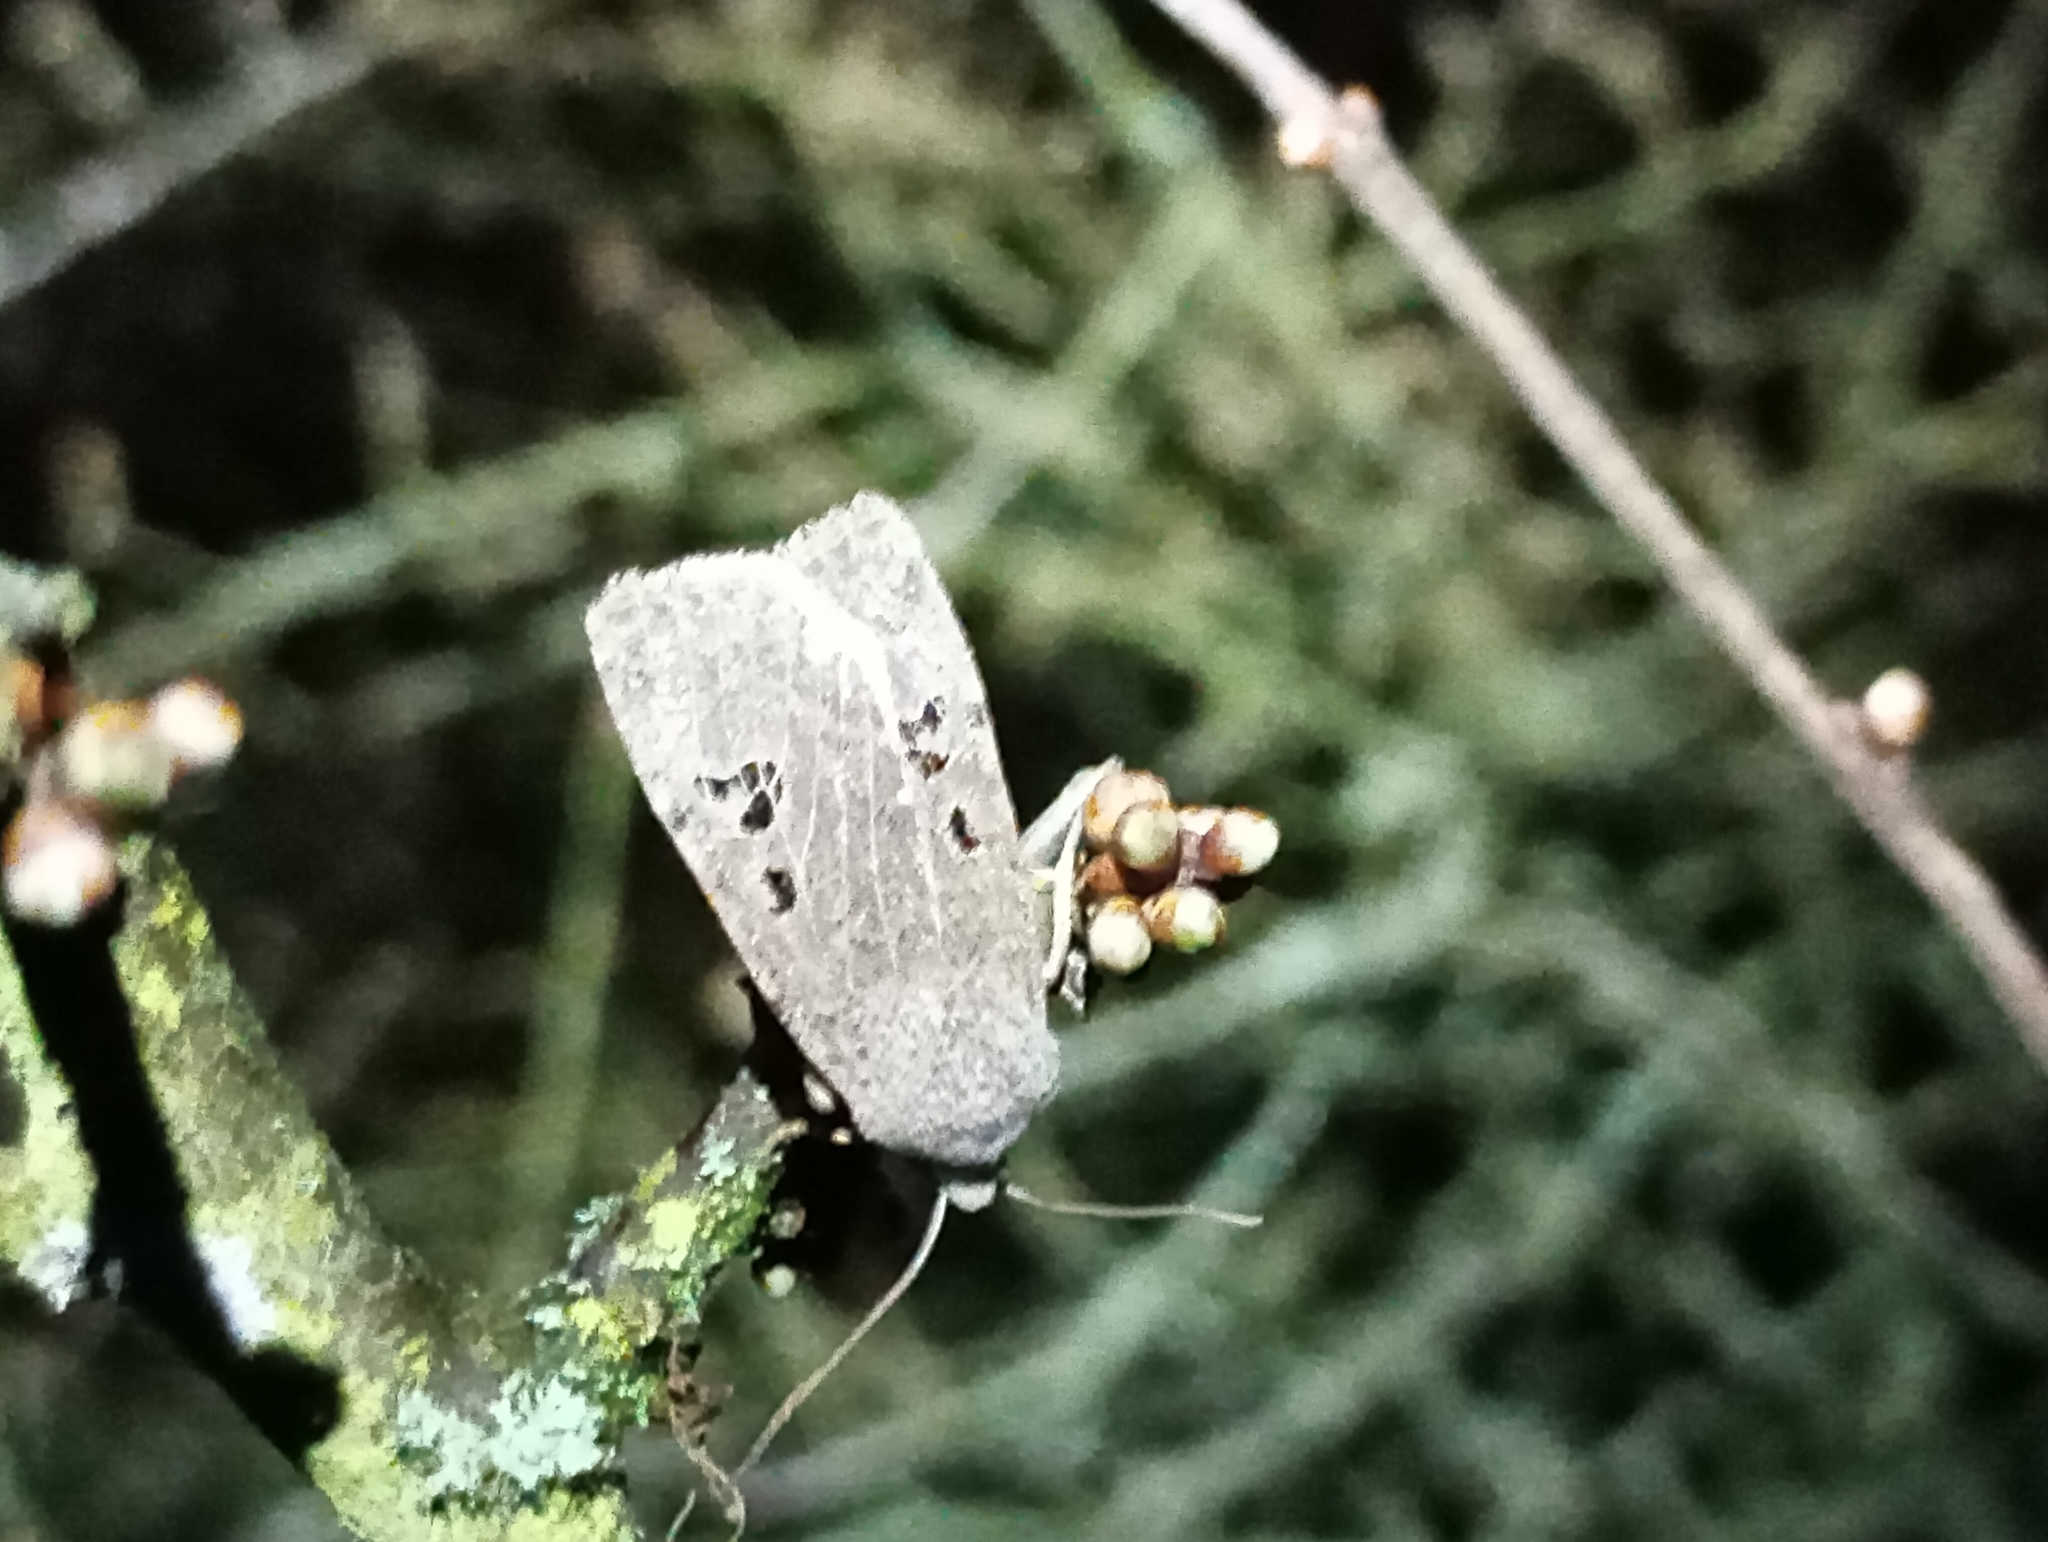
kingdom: Animalia
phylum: Arthropoda
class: Insecta
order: Lepidoptera
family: Noctuidae
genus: Conistra
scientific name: Conistra rubiginosa
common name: Black-spotted chestnut
